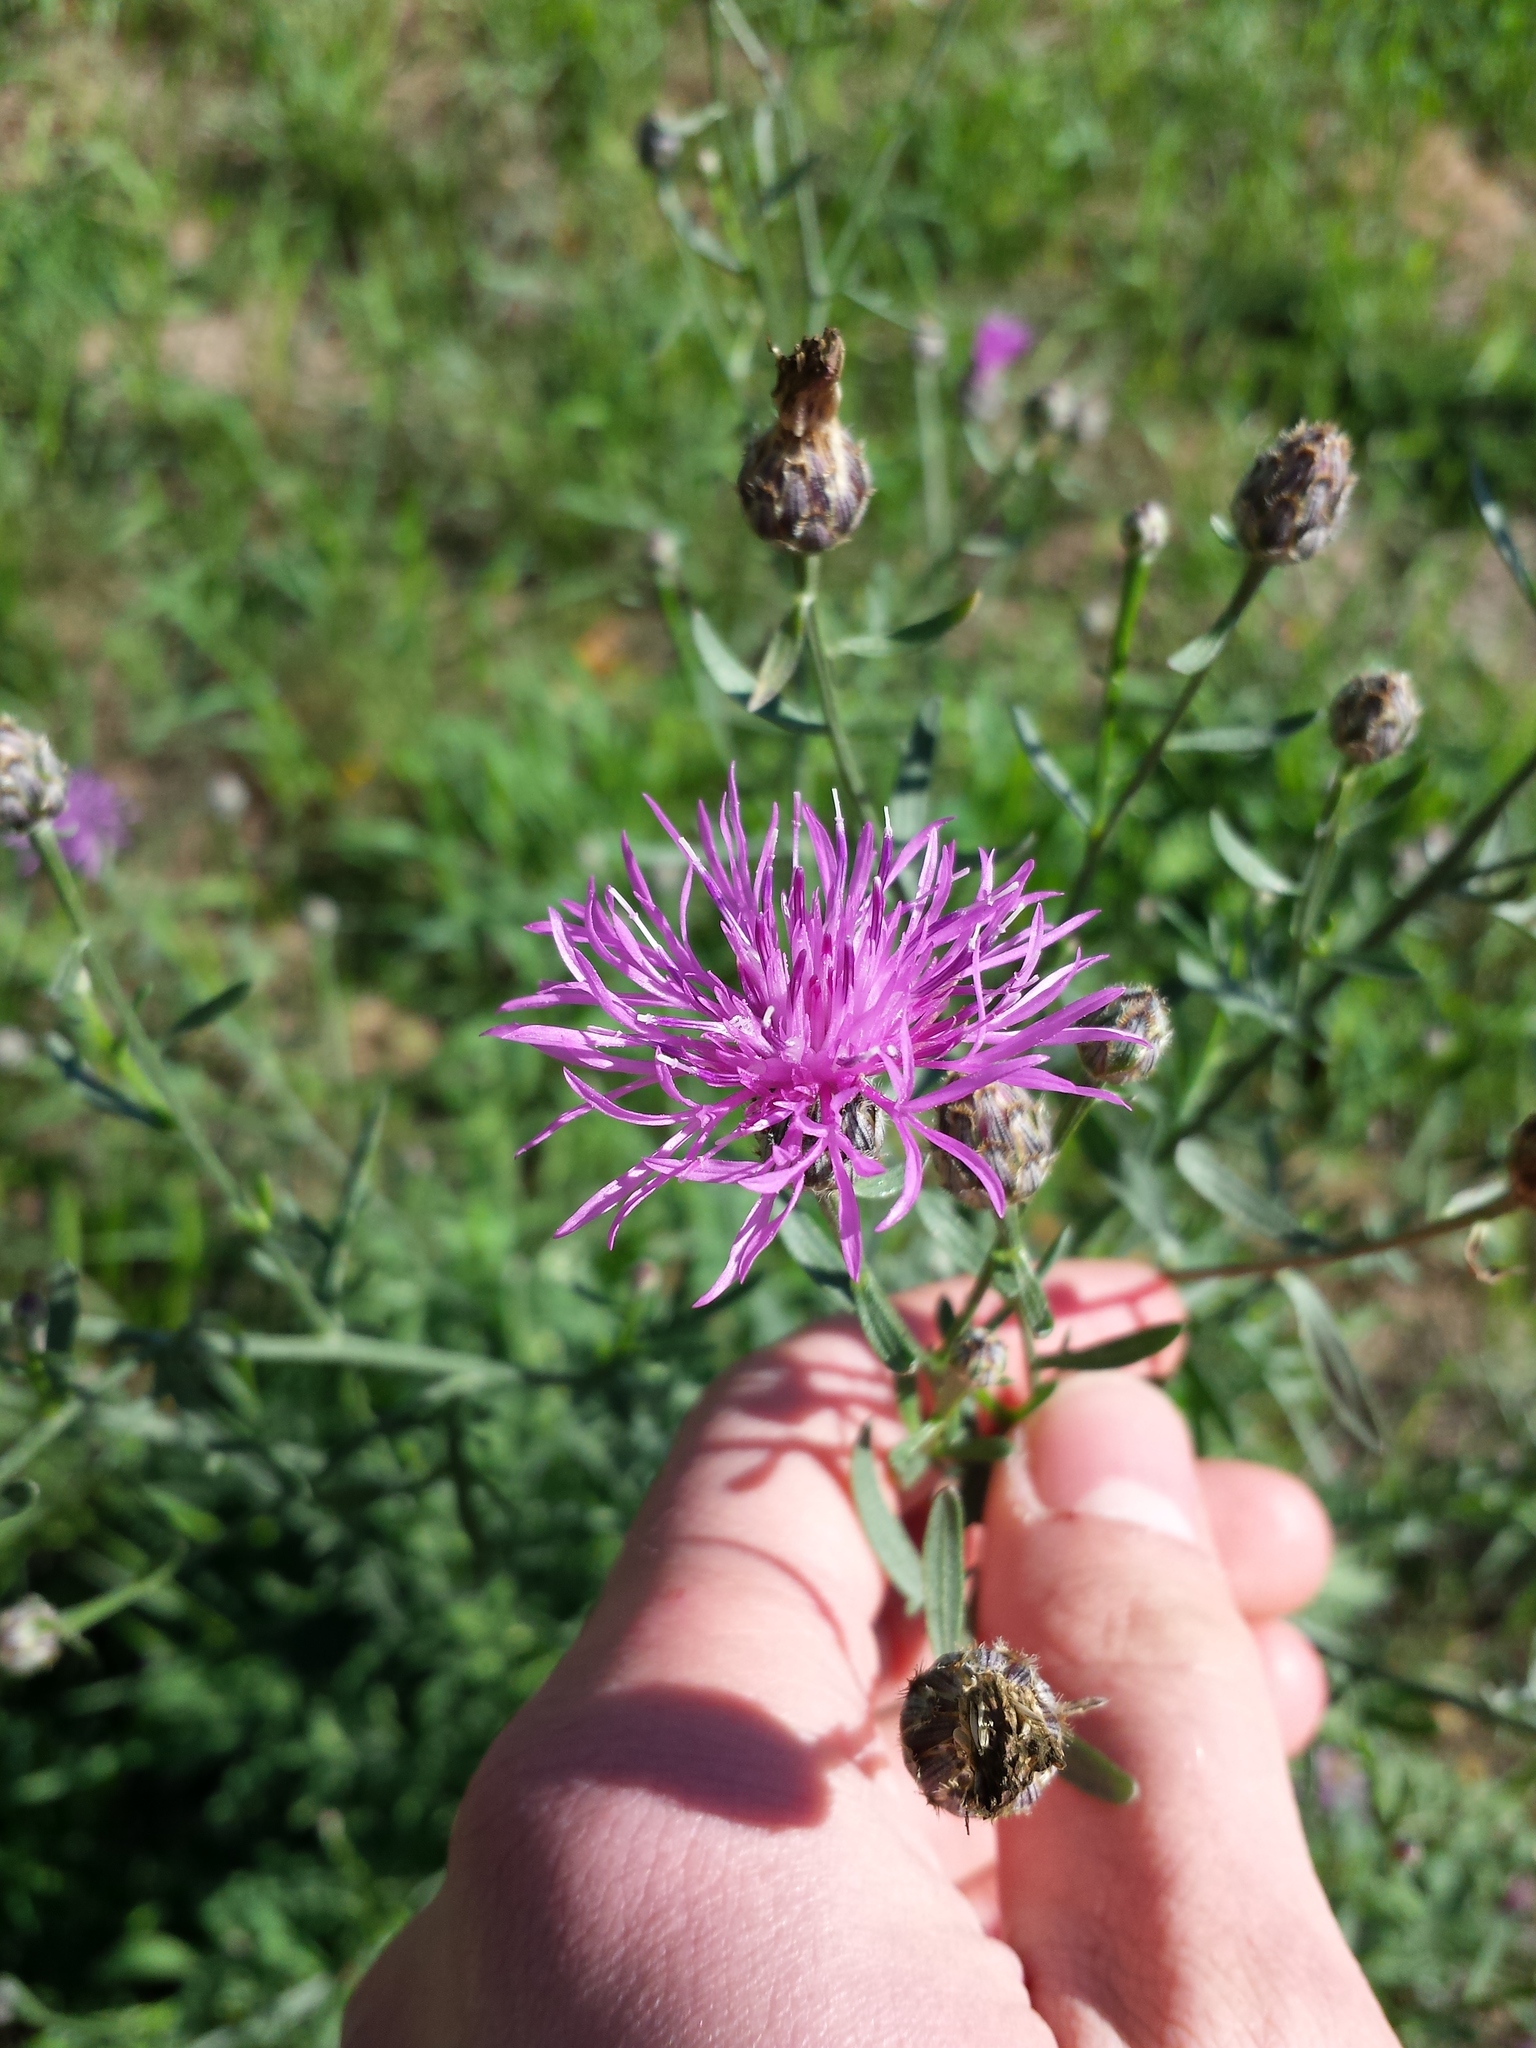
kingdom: Plantae
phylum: Tracheophyta
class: Magnoliopsida
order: Asterales
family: Asteraceae
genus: Centaurea
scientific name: Centaurea stoebe
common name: Spotted knapweed
